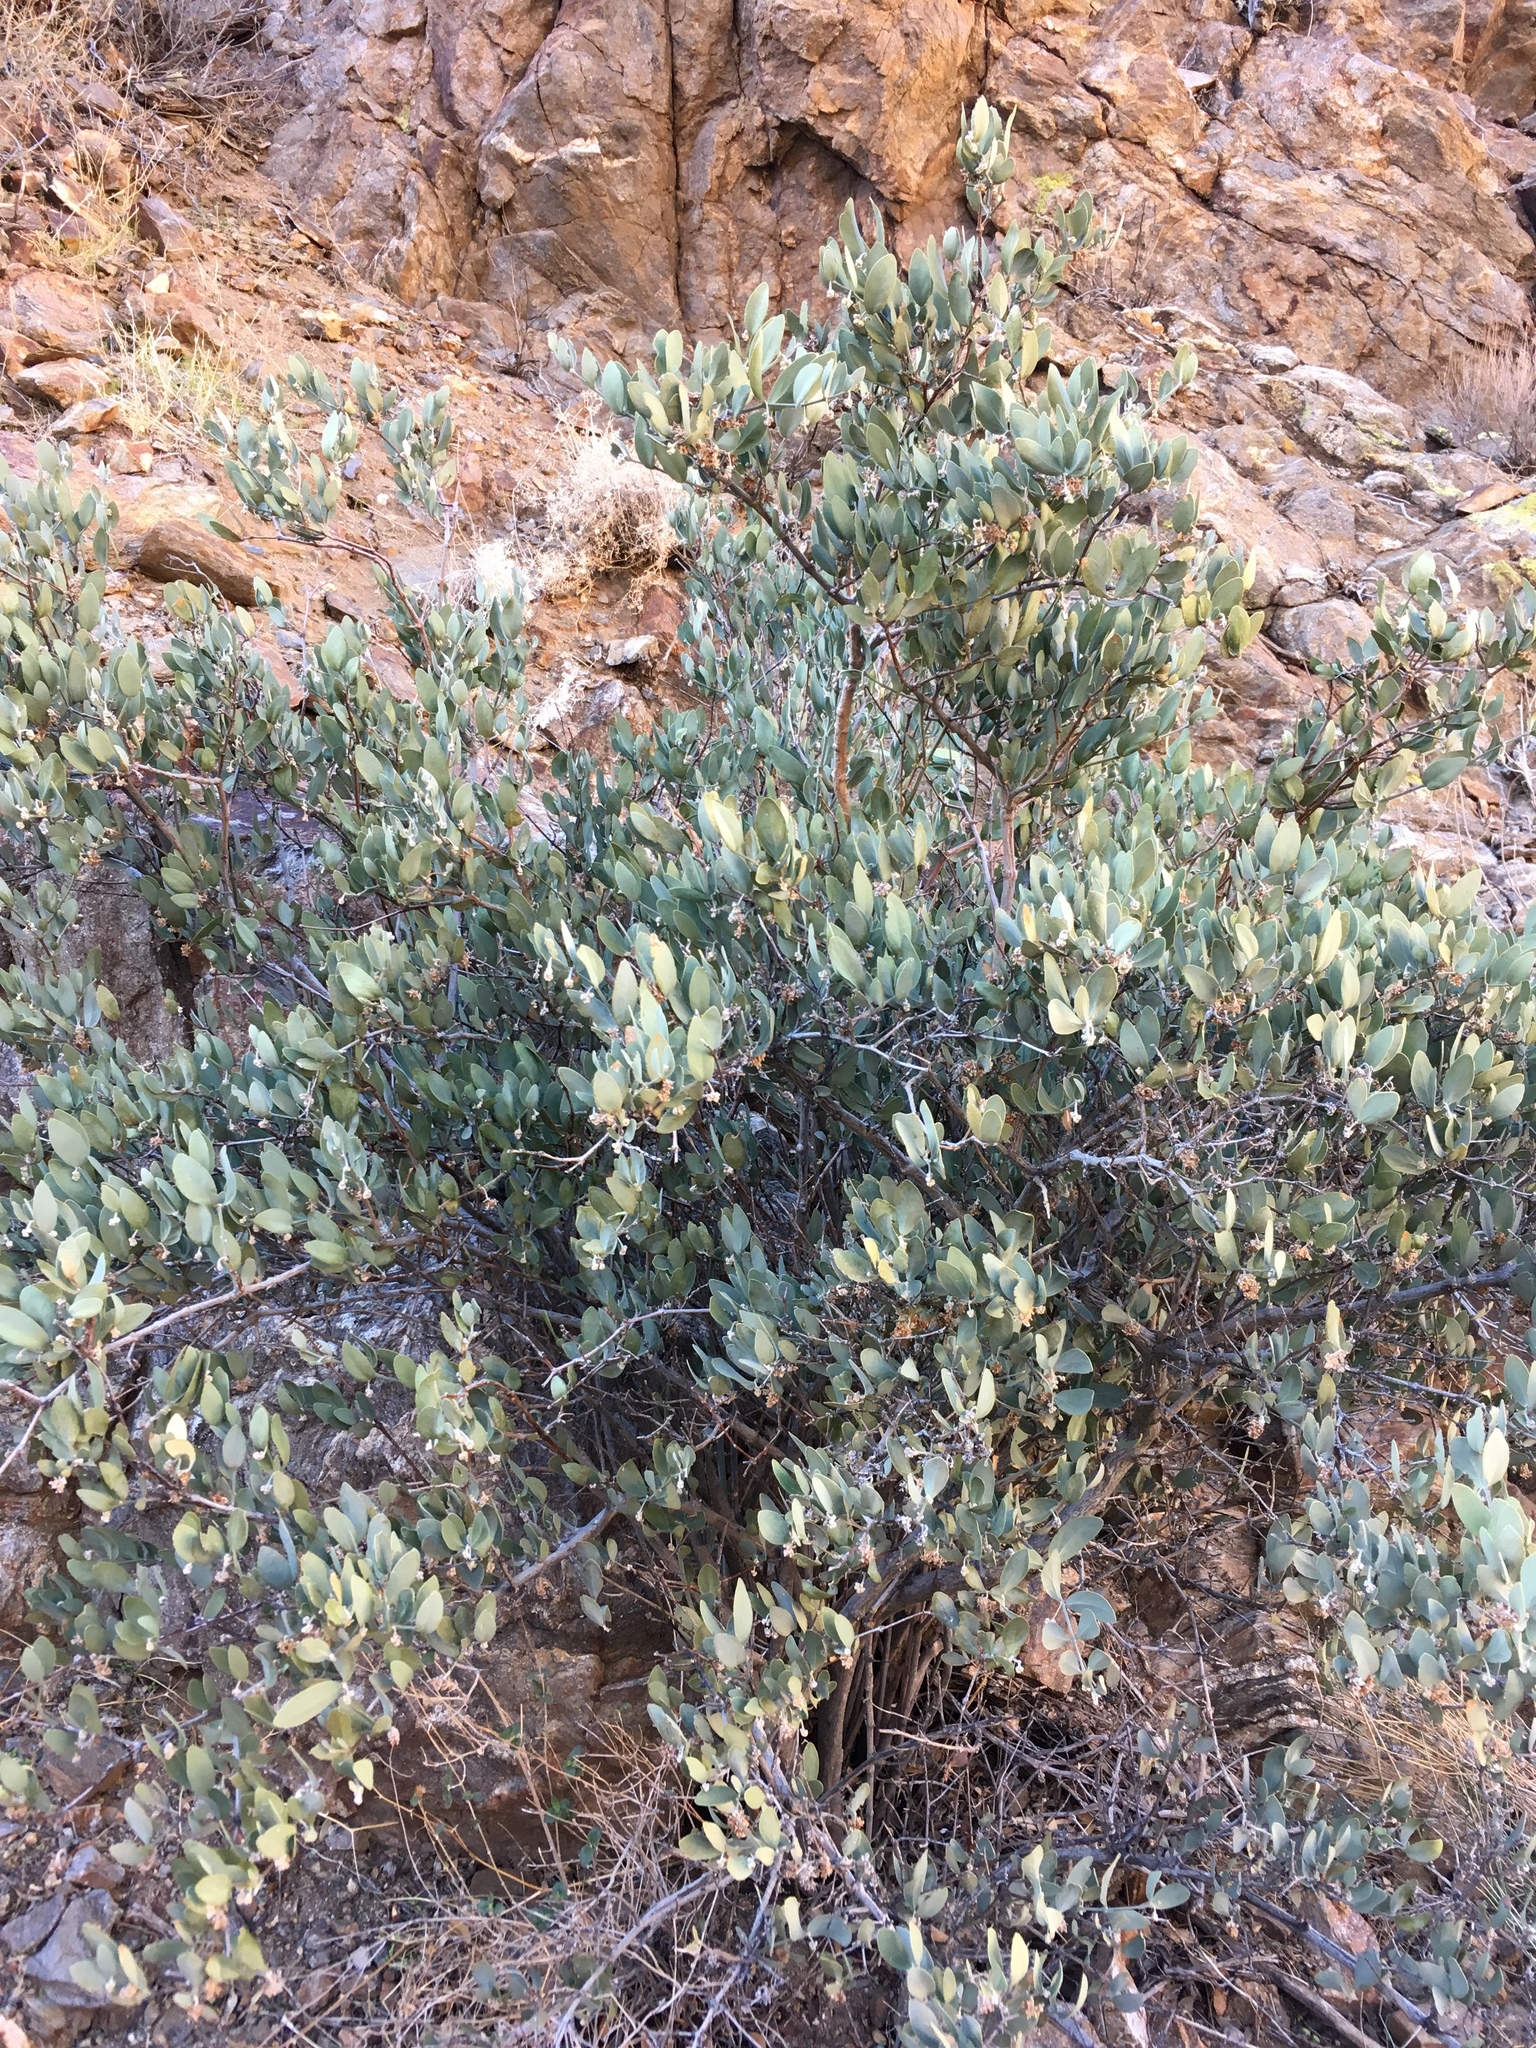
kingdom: Plantae
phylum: Tracheophyta
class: Magnoliopsida
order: Caryophyllales
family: Simmondsiaceae
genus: Simmondsia
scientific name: Simmondsia chinensis
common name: Jojoba
